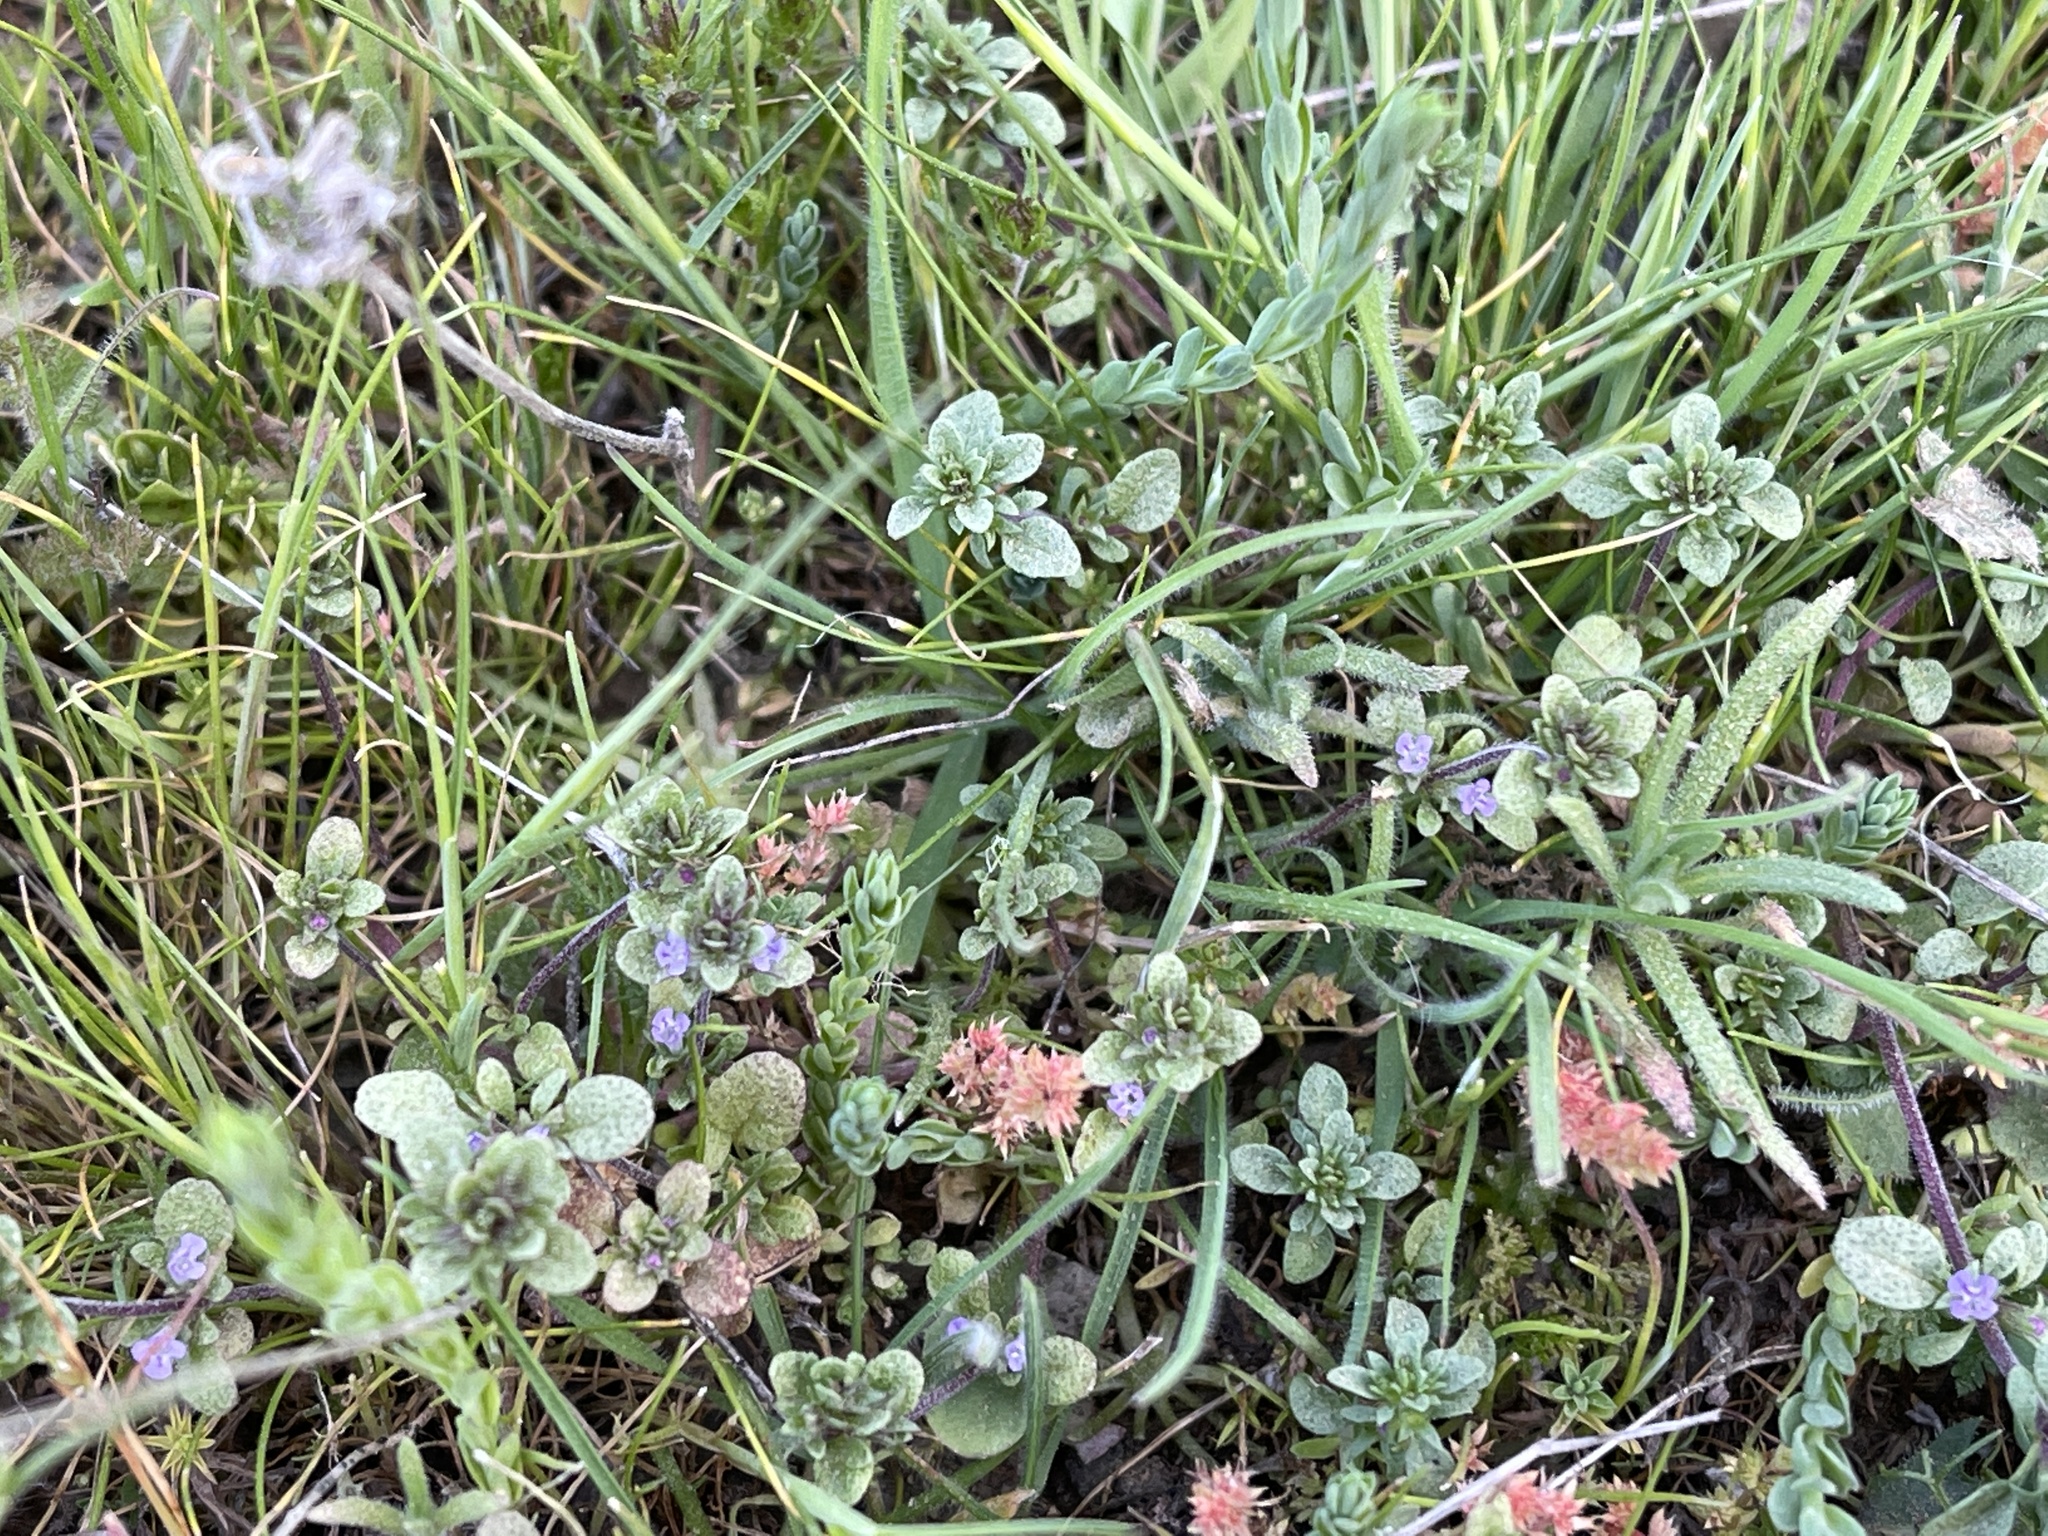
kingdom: Plantae
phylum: Tracheophyta
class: Magnoliopsida
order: Lamiales
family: Lamiaceae
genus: Pogogyne
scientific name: Pogogyne serpylloides
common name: Thymeleaf mesamint
